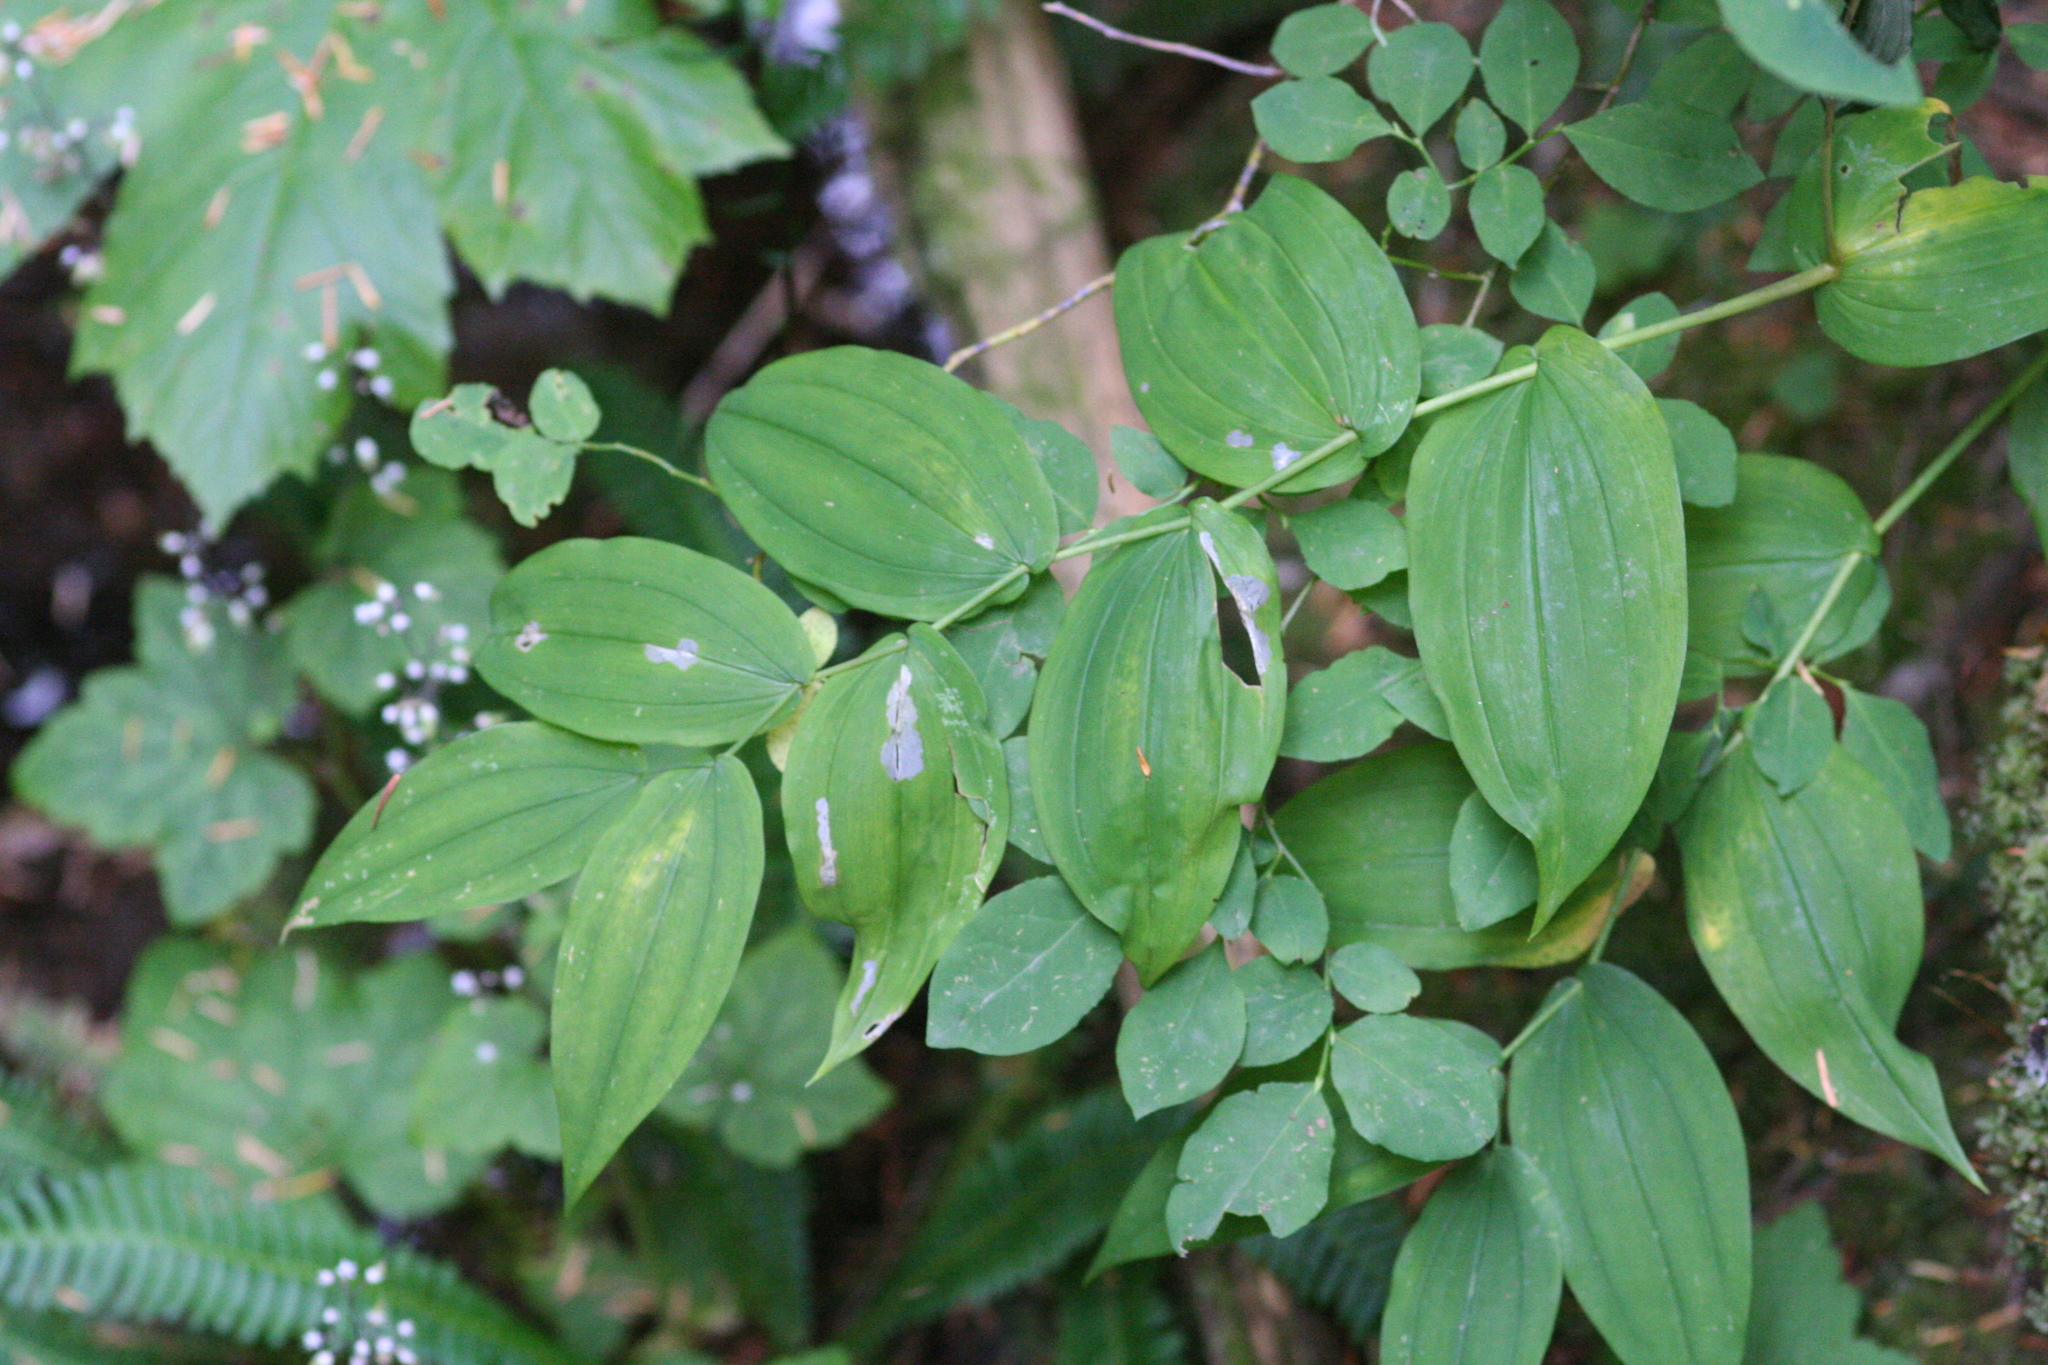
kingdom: Plantae
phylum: Tracheophyta
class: Liliopsida
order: Liliales
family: Liliaceae
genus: Streptopus
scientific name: Streptopus amplexifolius
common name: Clasp twisted stalk
